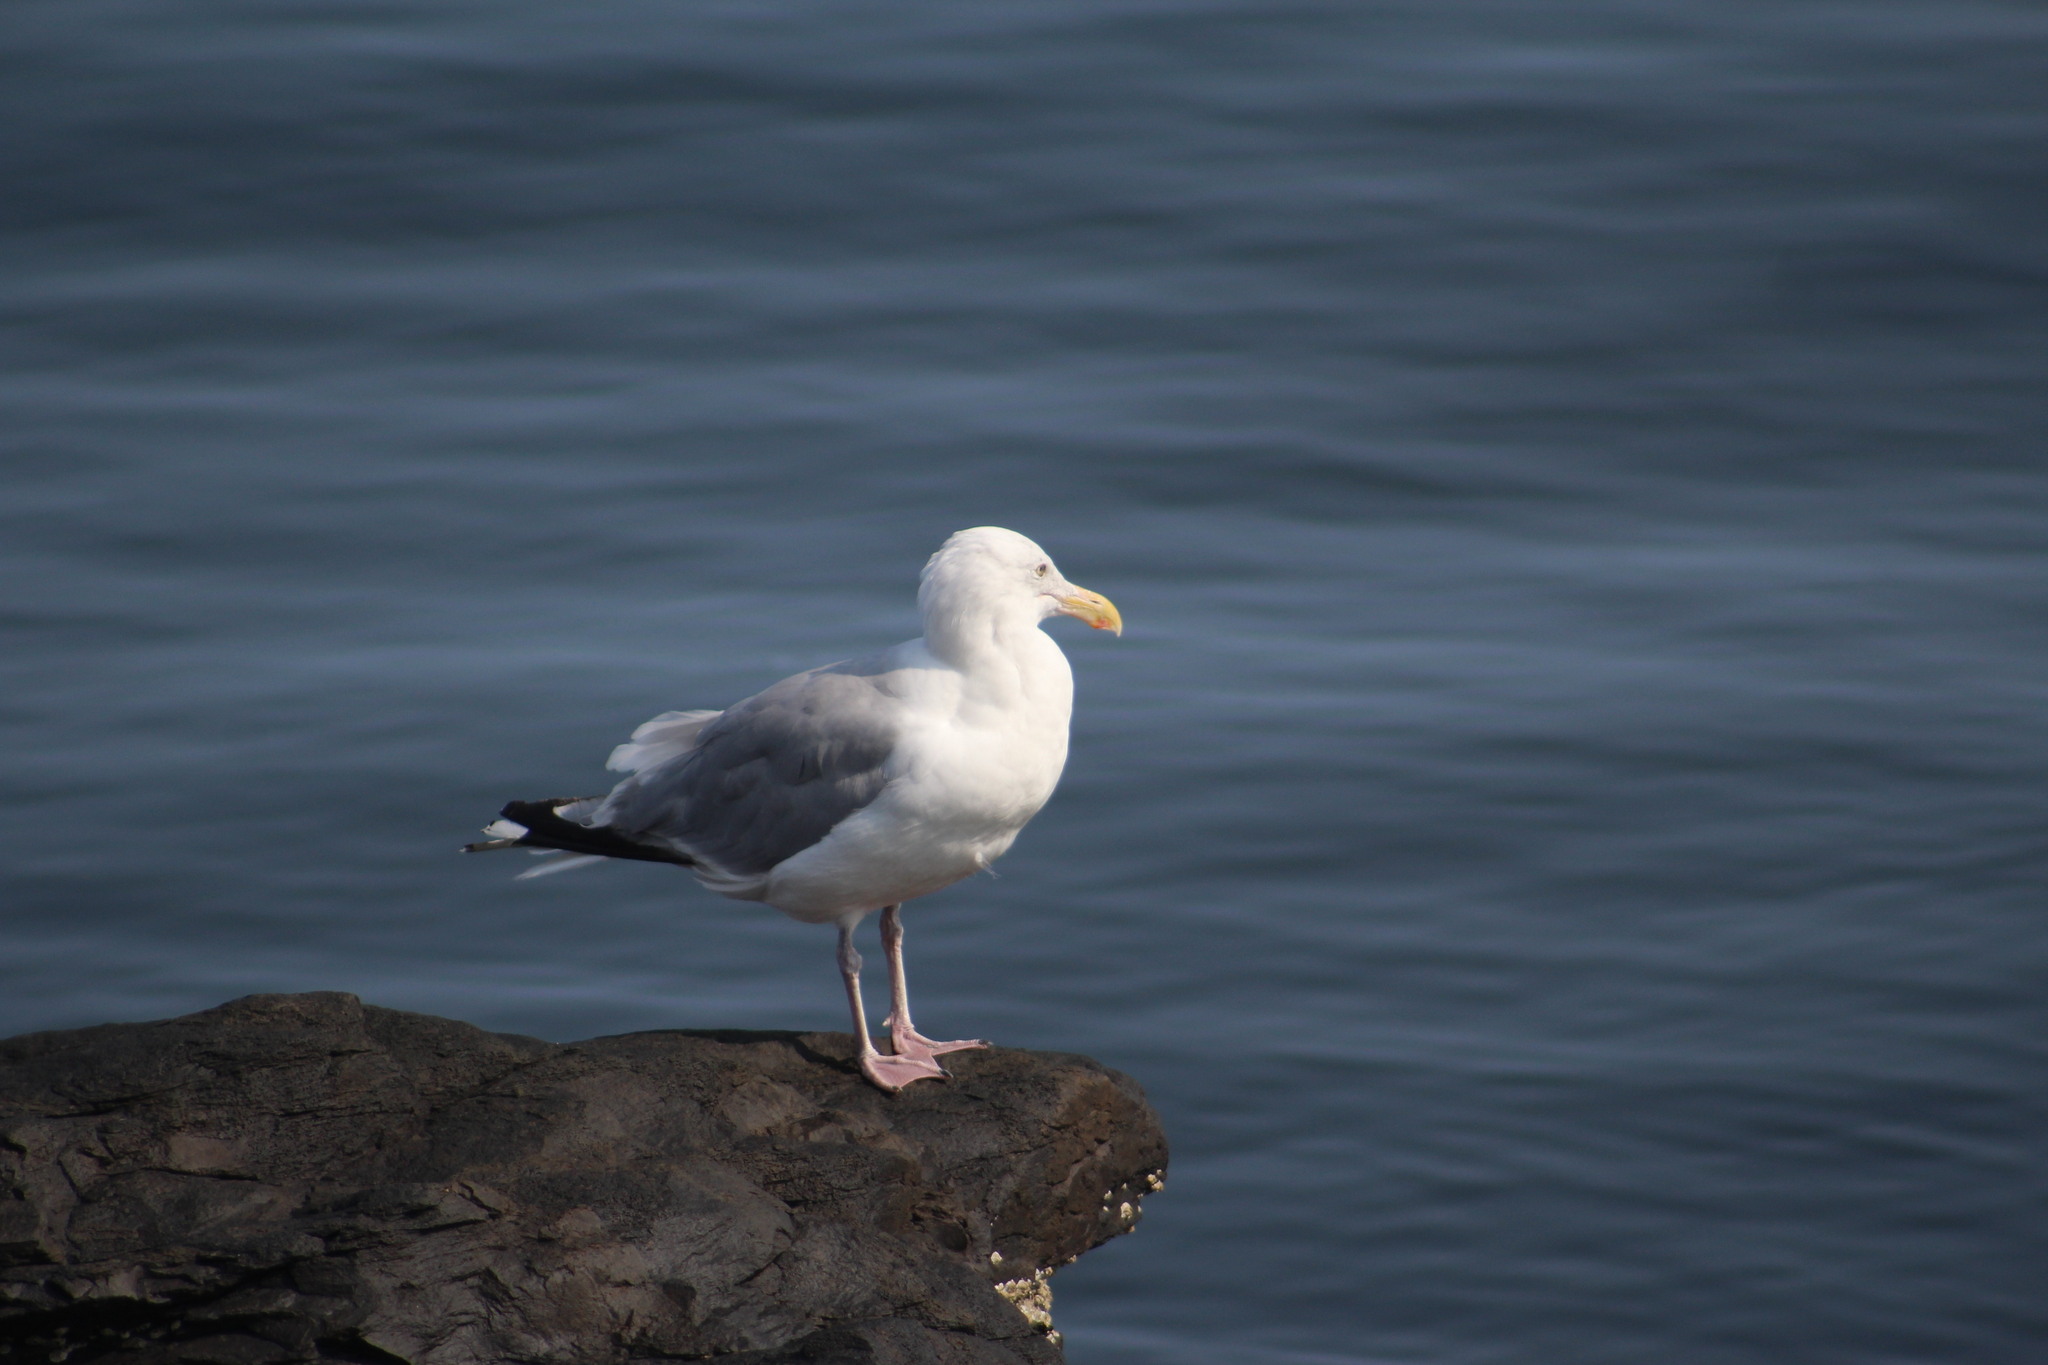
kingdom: Animalia
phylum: Chordata
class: Aves
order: Charadriiformes
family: Laridae
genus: Larus
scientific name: Larus argentatus
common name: Herring gull
